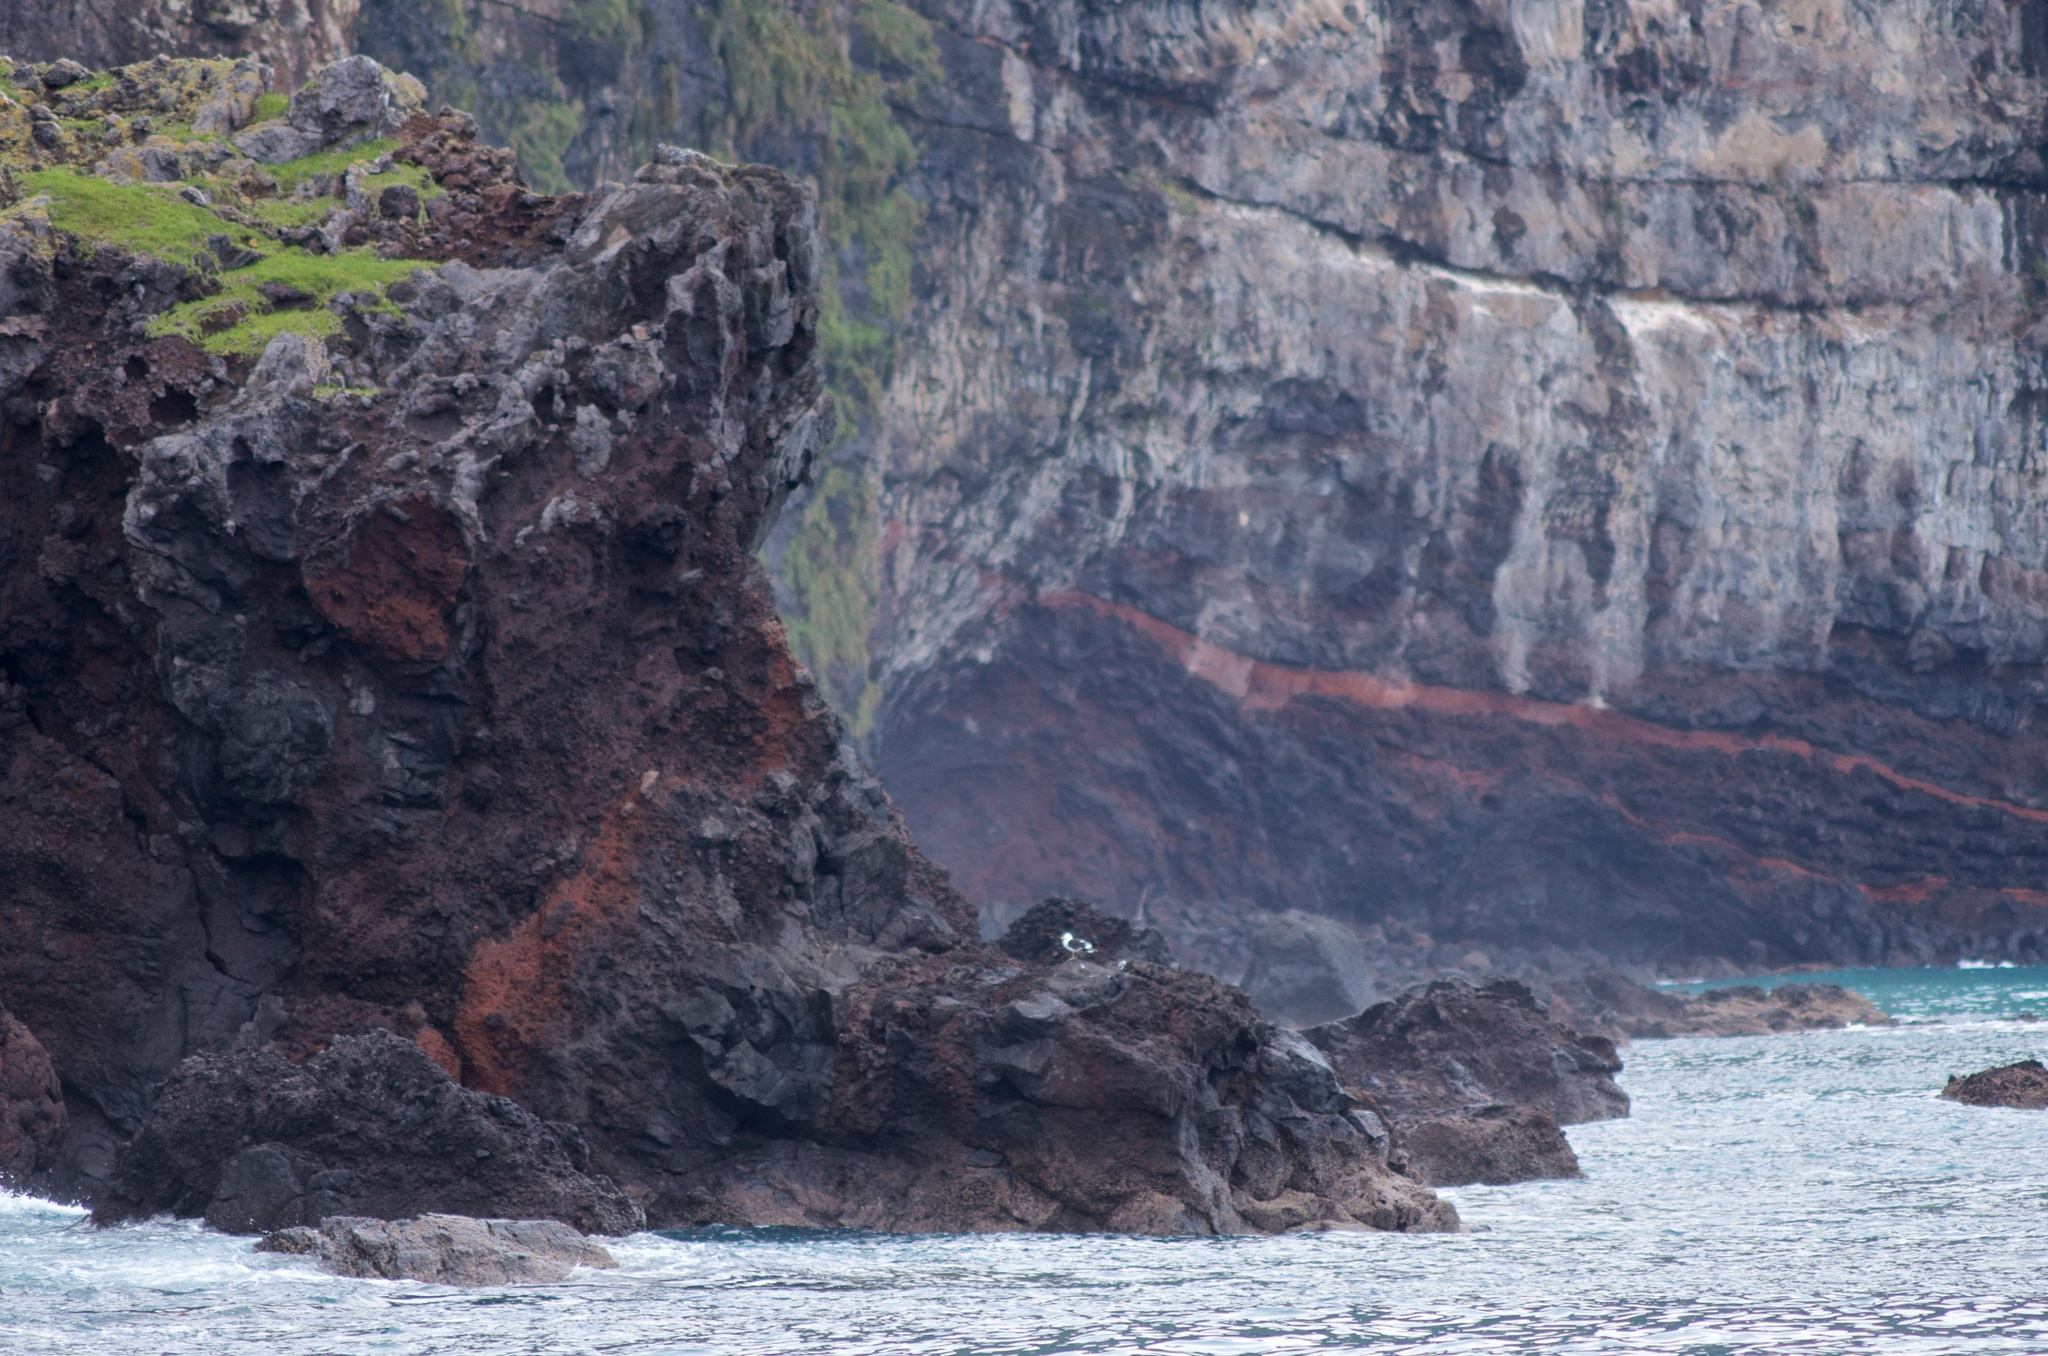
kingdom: Animalia
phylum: Chordata
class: Aves
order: Charadriiformes
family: Laridae
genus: Larus
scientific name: Larus dominicanus
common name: Kelp gull
